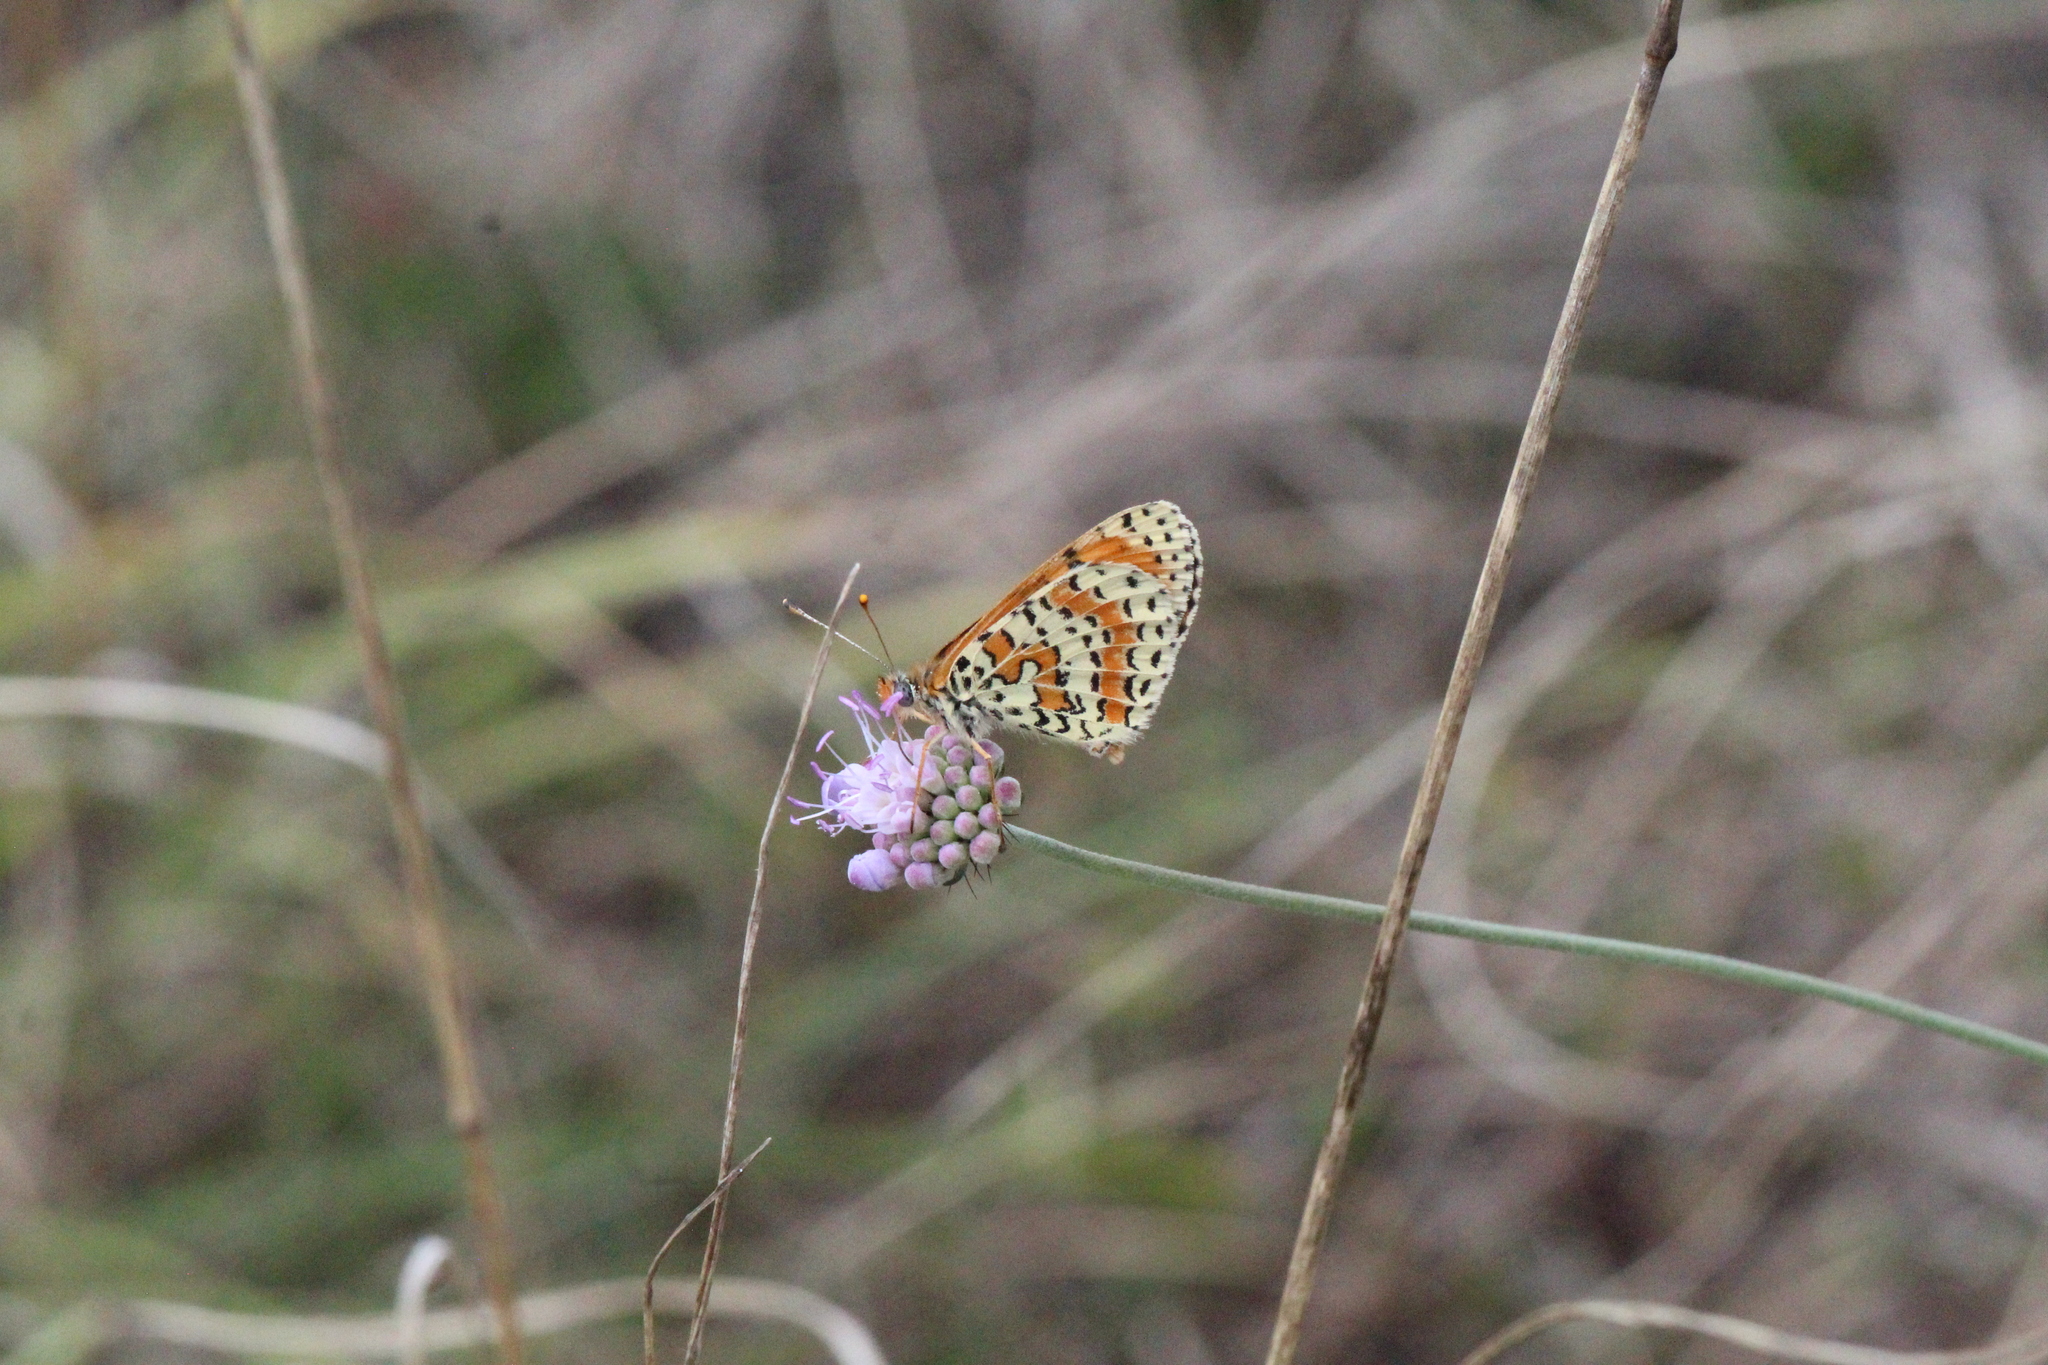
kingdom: Animalia
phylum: Arthropoda
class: Insecta
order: Lepidoptera
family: Nymphalidae
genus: Melitaea
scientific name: Melitaea didyma
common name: Spotted fritillary
